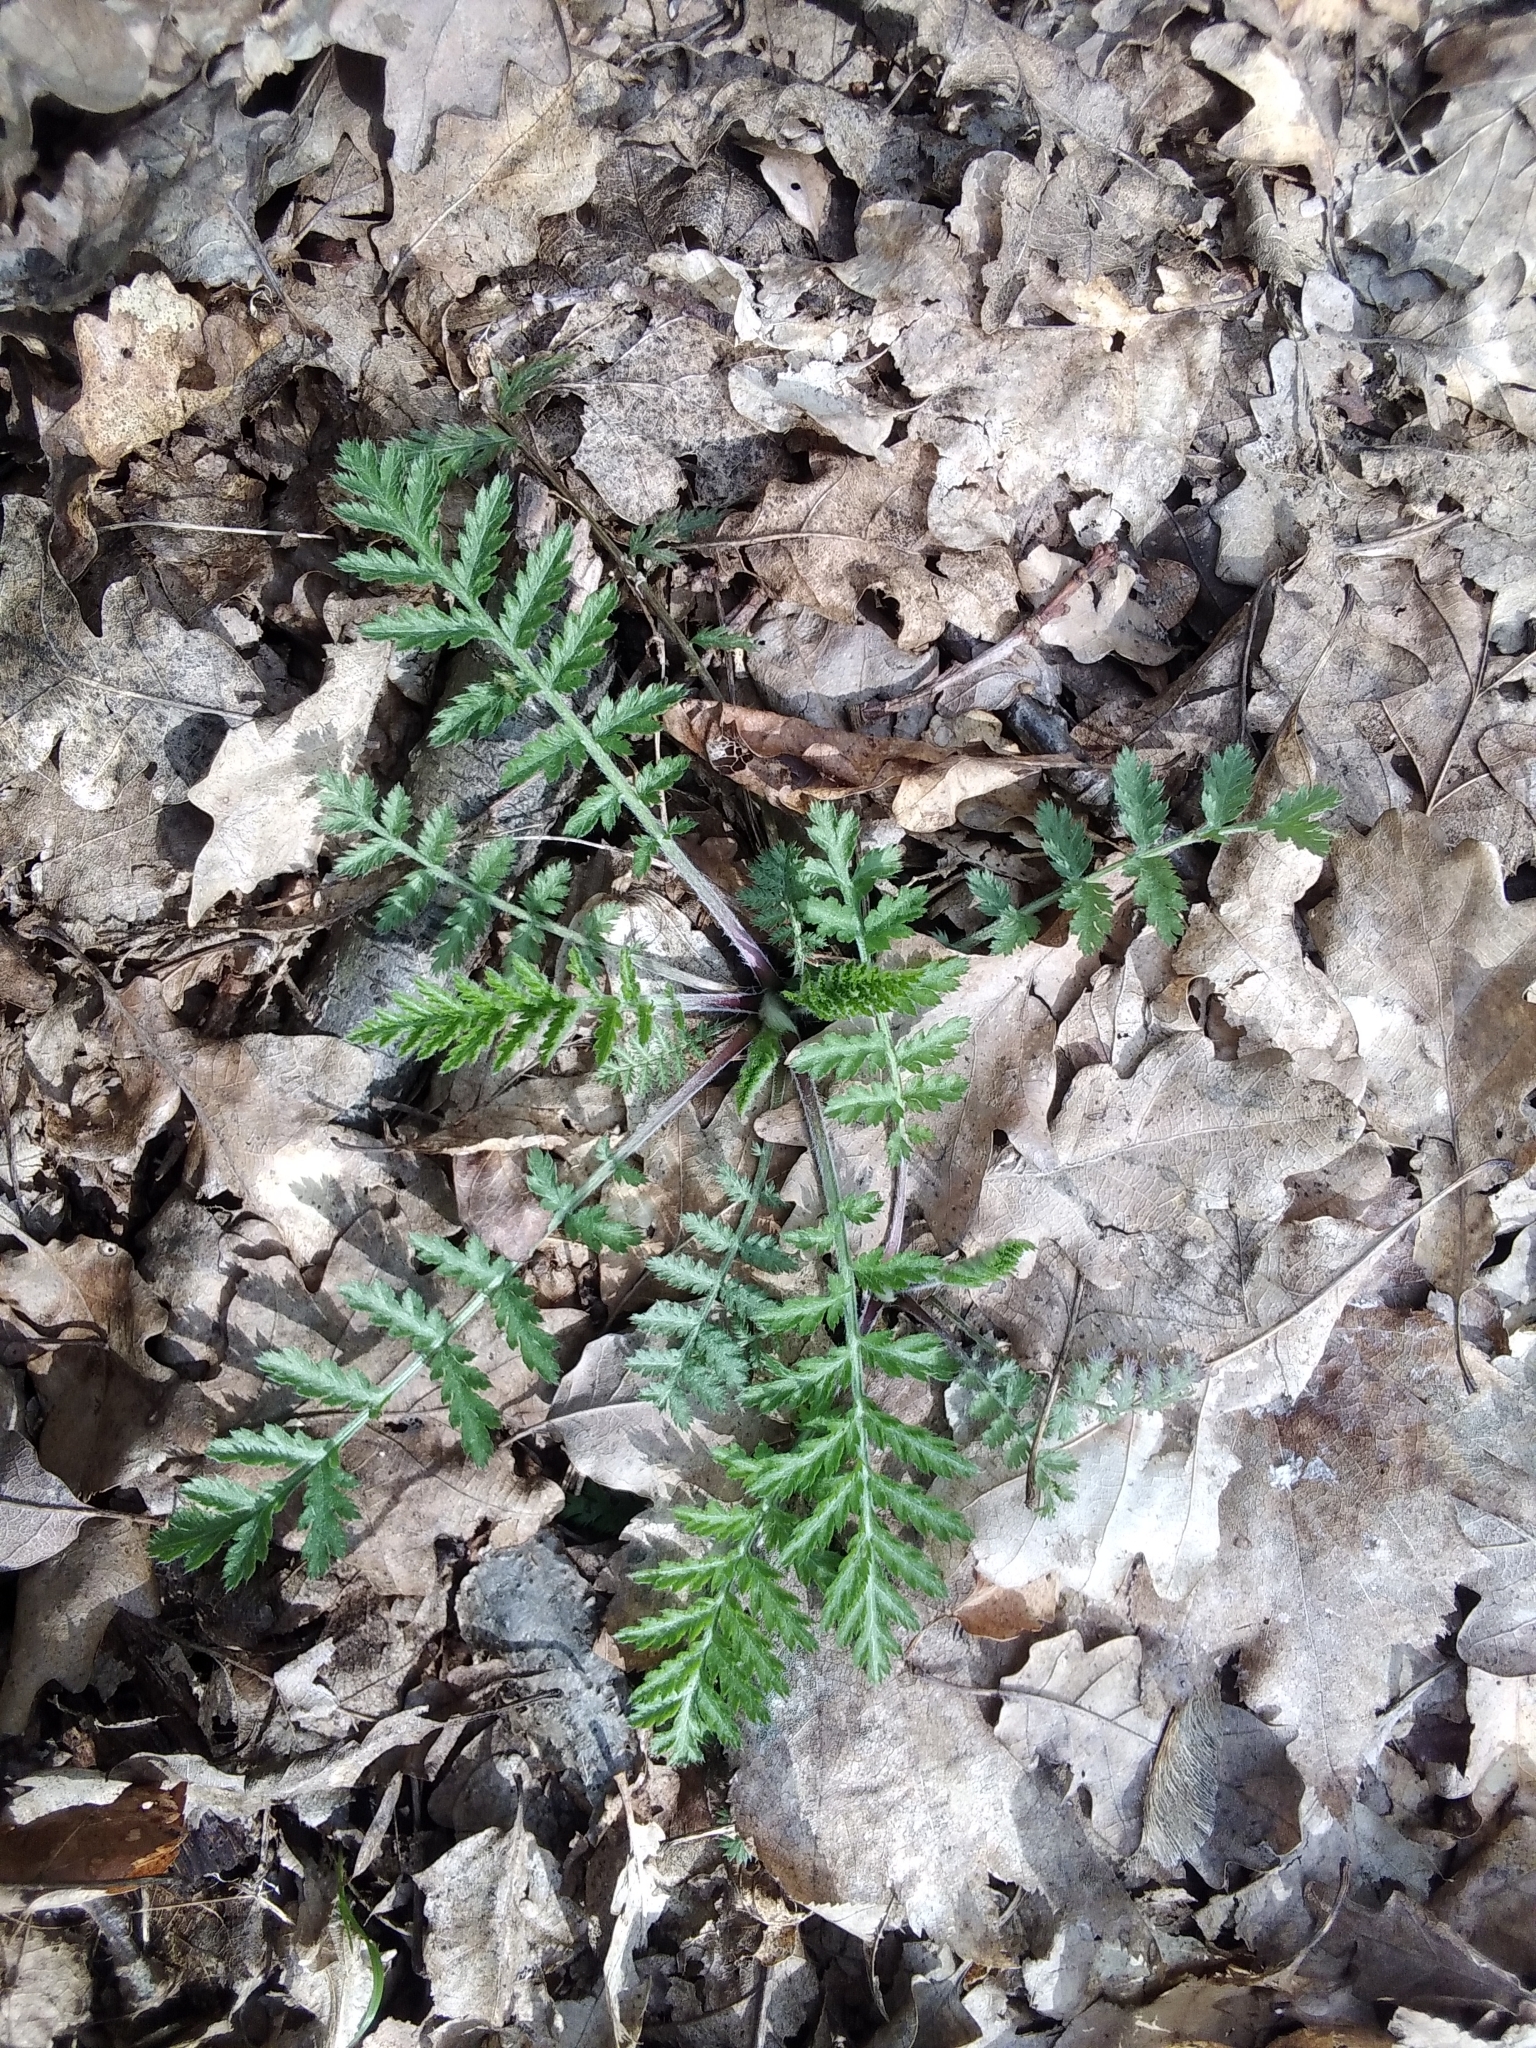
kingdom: Plantae
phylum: Tracheophyta
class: Magnoliopsida
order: Asterales
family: Asteraceae
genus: Tanacetum
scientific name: Tanacetum corymbosum
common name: Scentless feverfew
